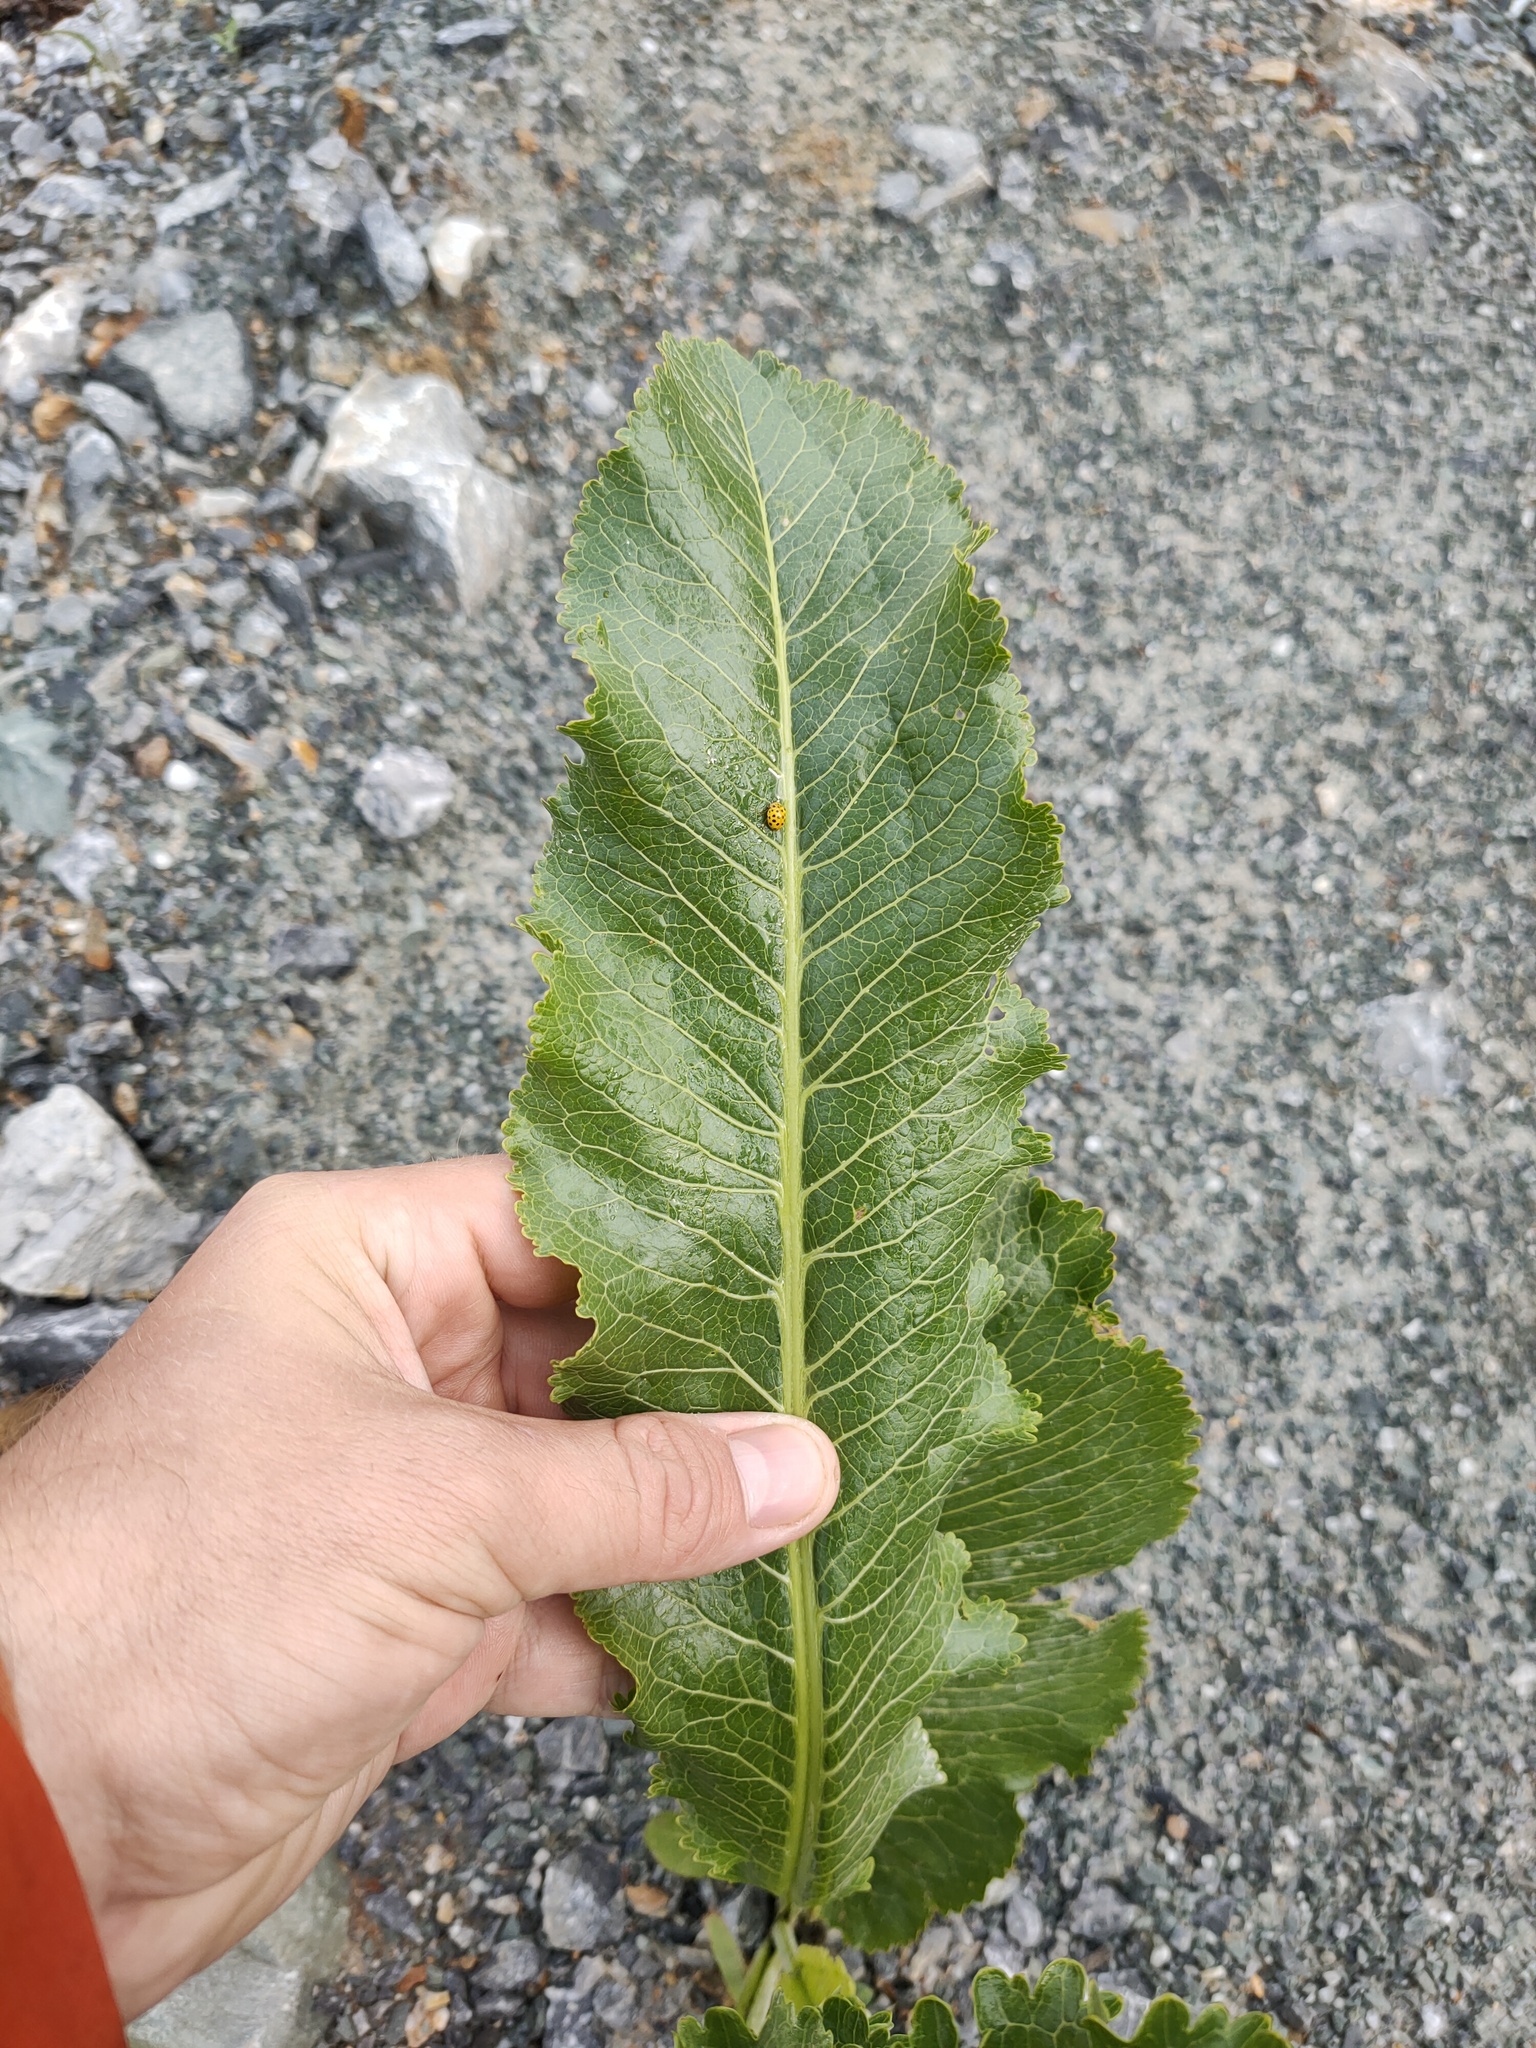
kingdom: Plantae
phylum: Tracheophyta
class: Magnoliopsida
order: Brassicales
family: Brassicaceae
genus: Armoracia
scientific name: Armoracia rusticana
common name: Horseradish
